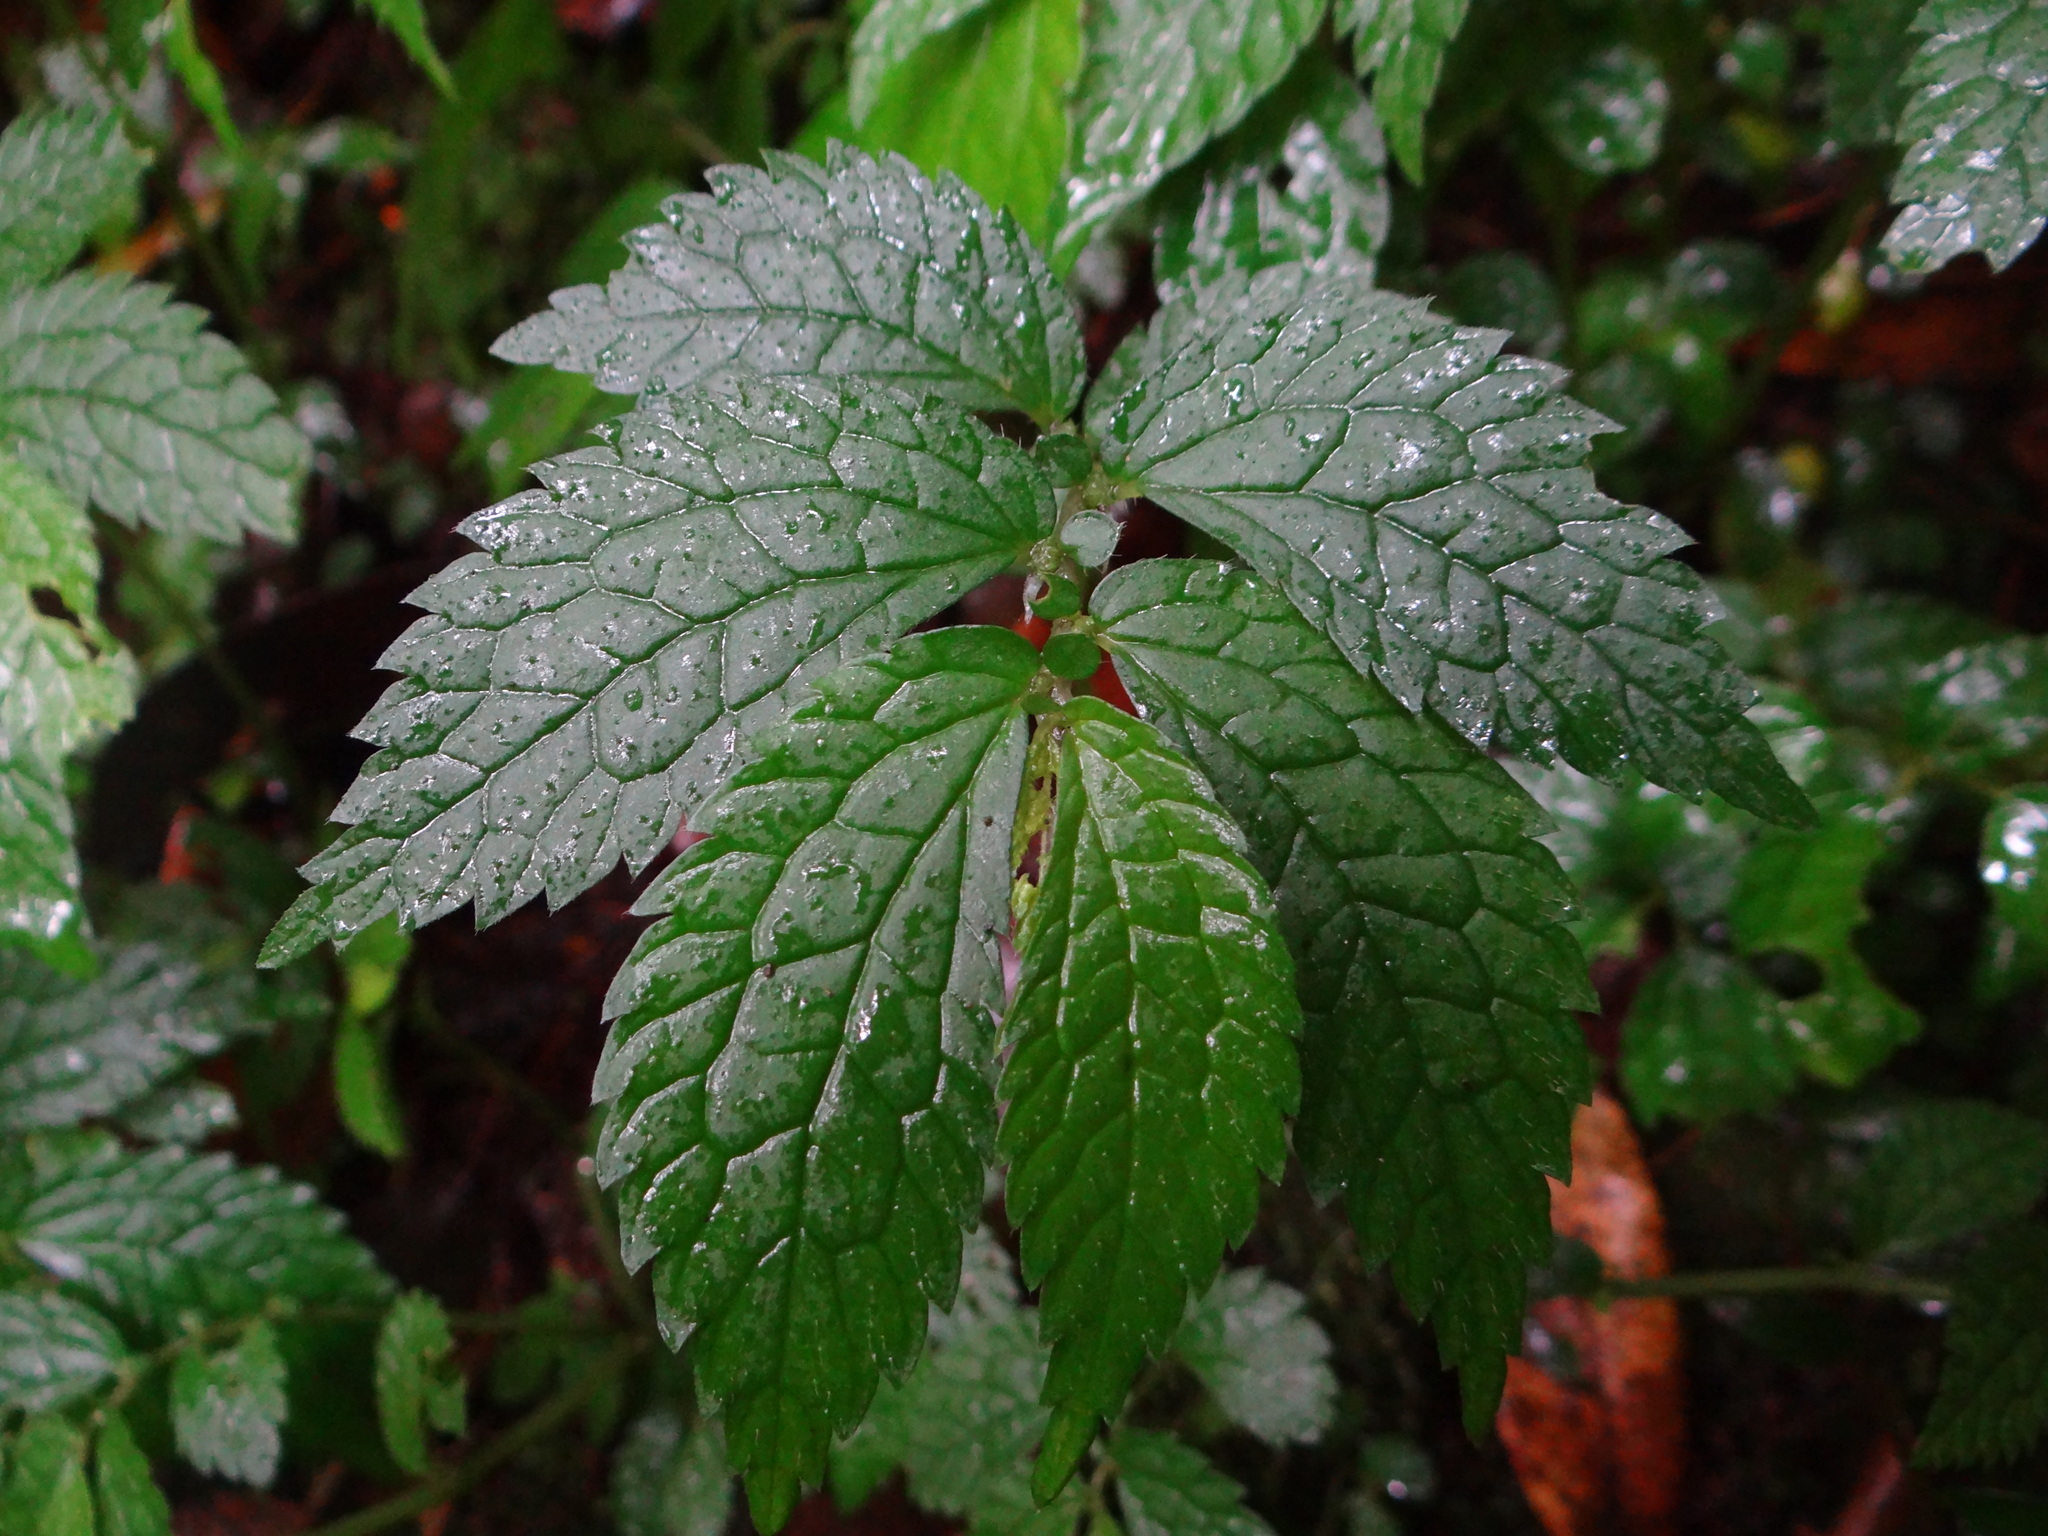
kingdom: Plantae
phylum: Tracheophyta
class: Magnoliopsida
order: Rosales
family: Urticaceae
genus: Elatostema
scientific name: Elatostema parvum
